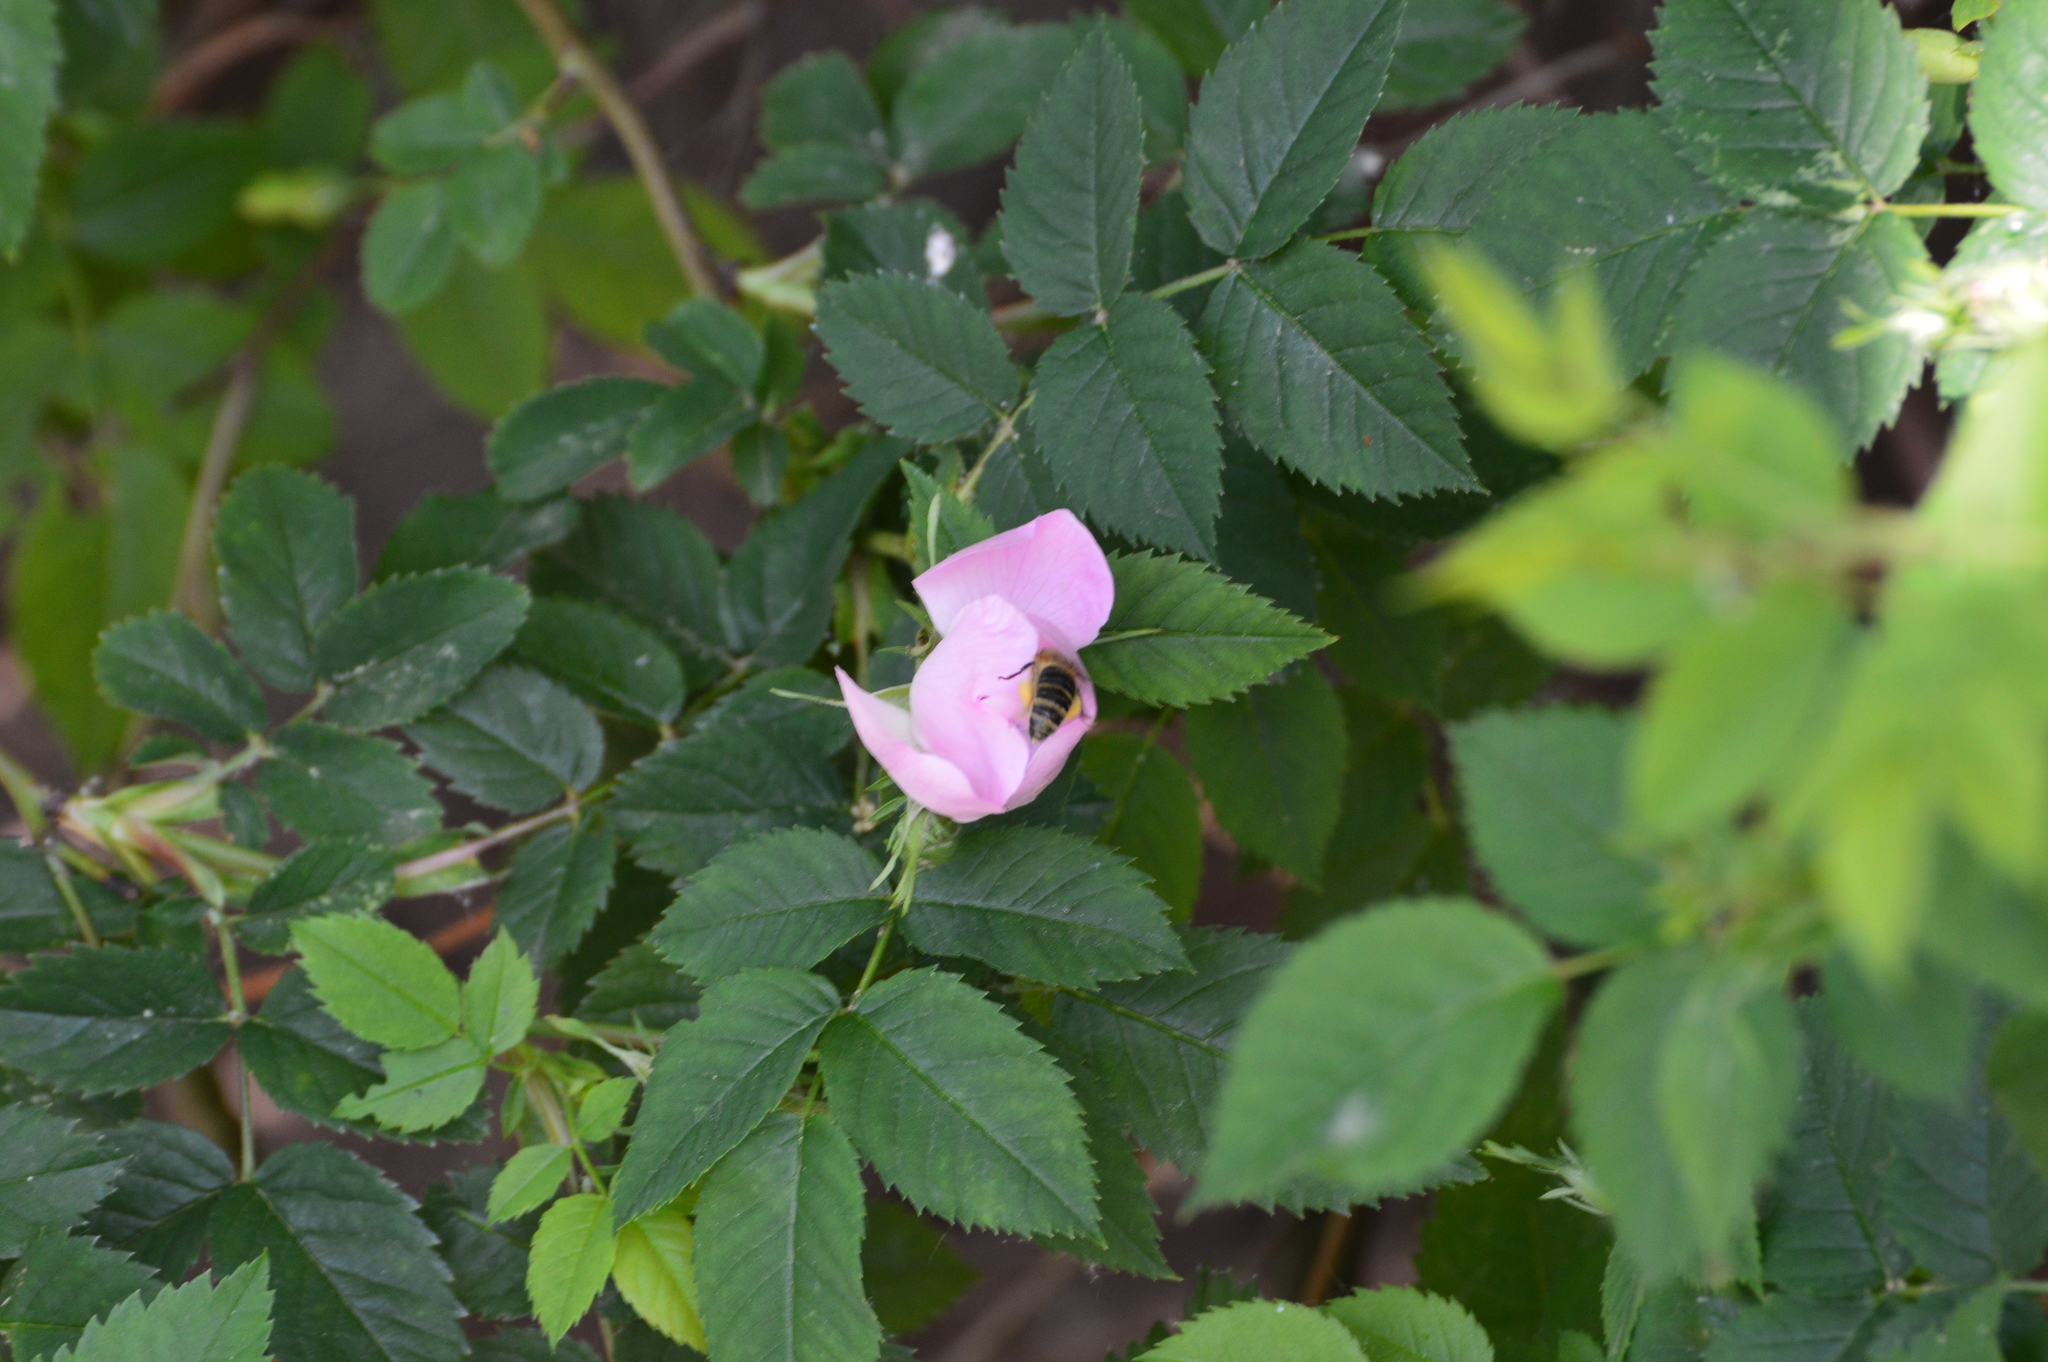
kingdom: Animalia
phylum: Arthropoda
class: Insecta
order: Hymenoptera
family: Apidae
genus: Apis
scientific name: Apis mellifera
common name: Honey bee
